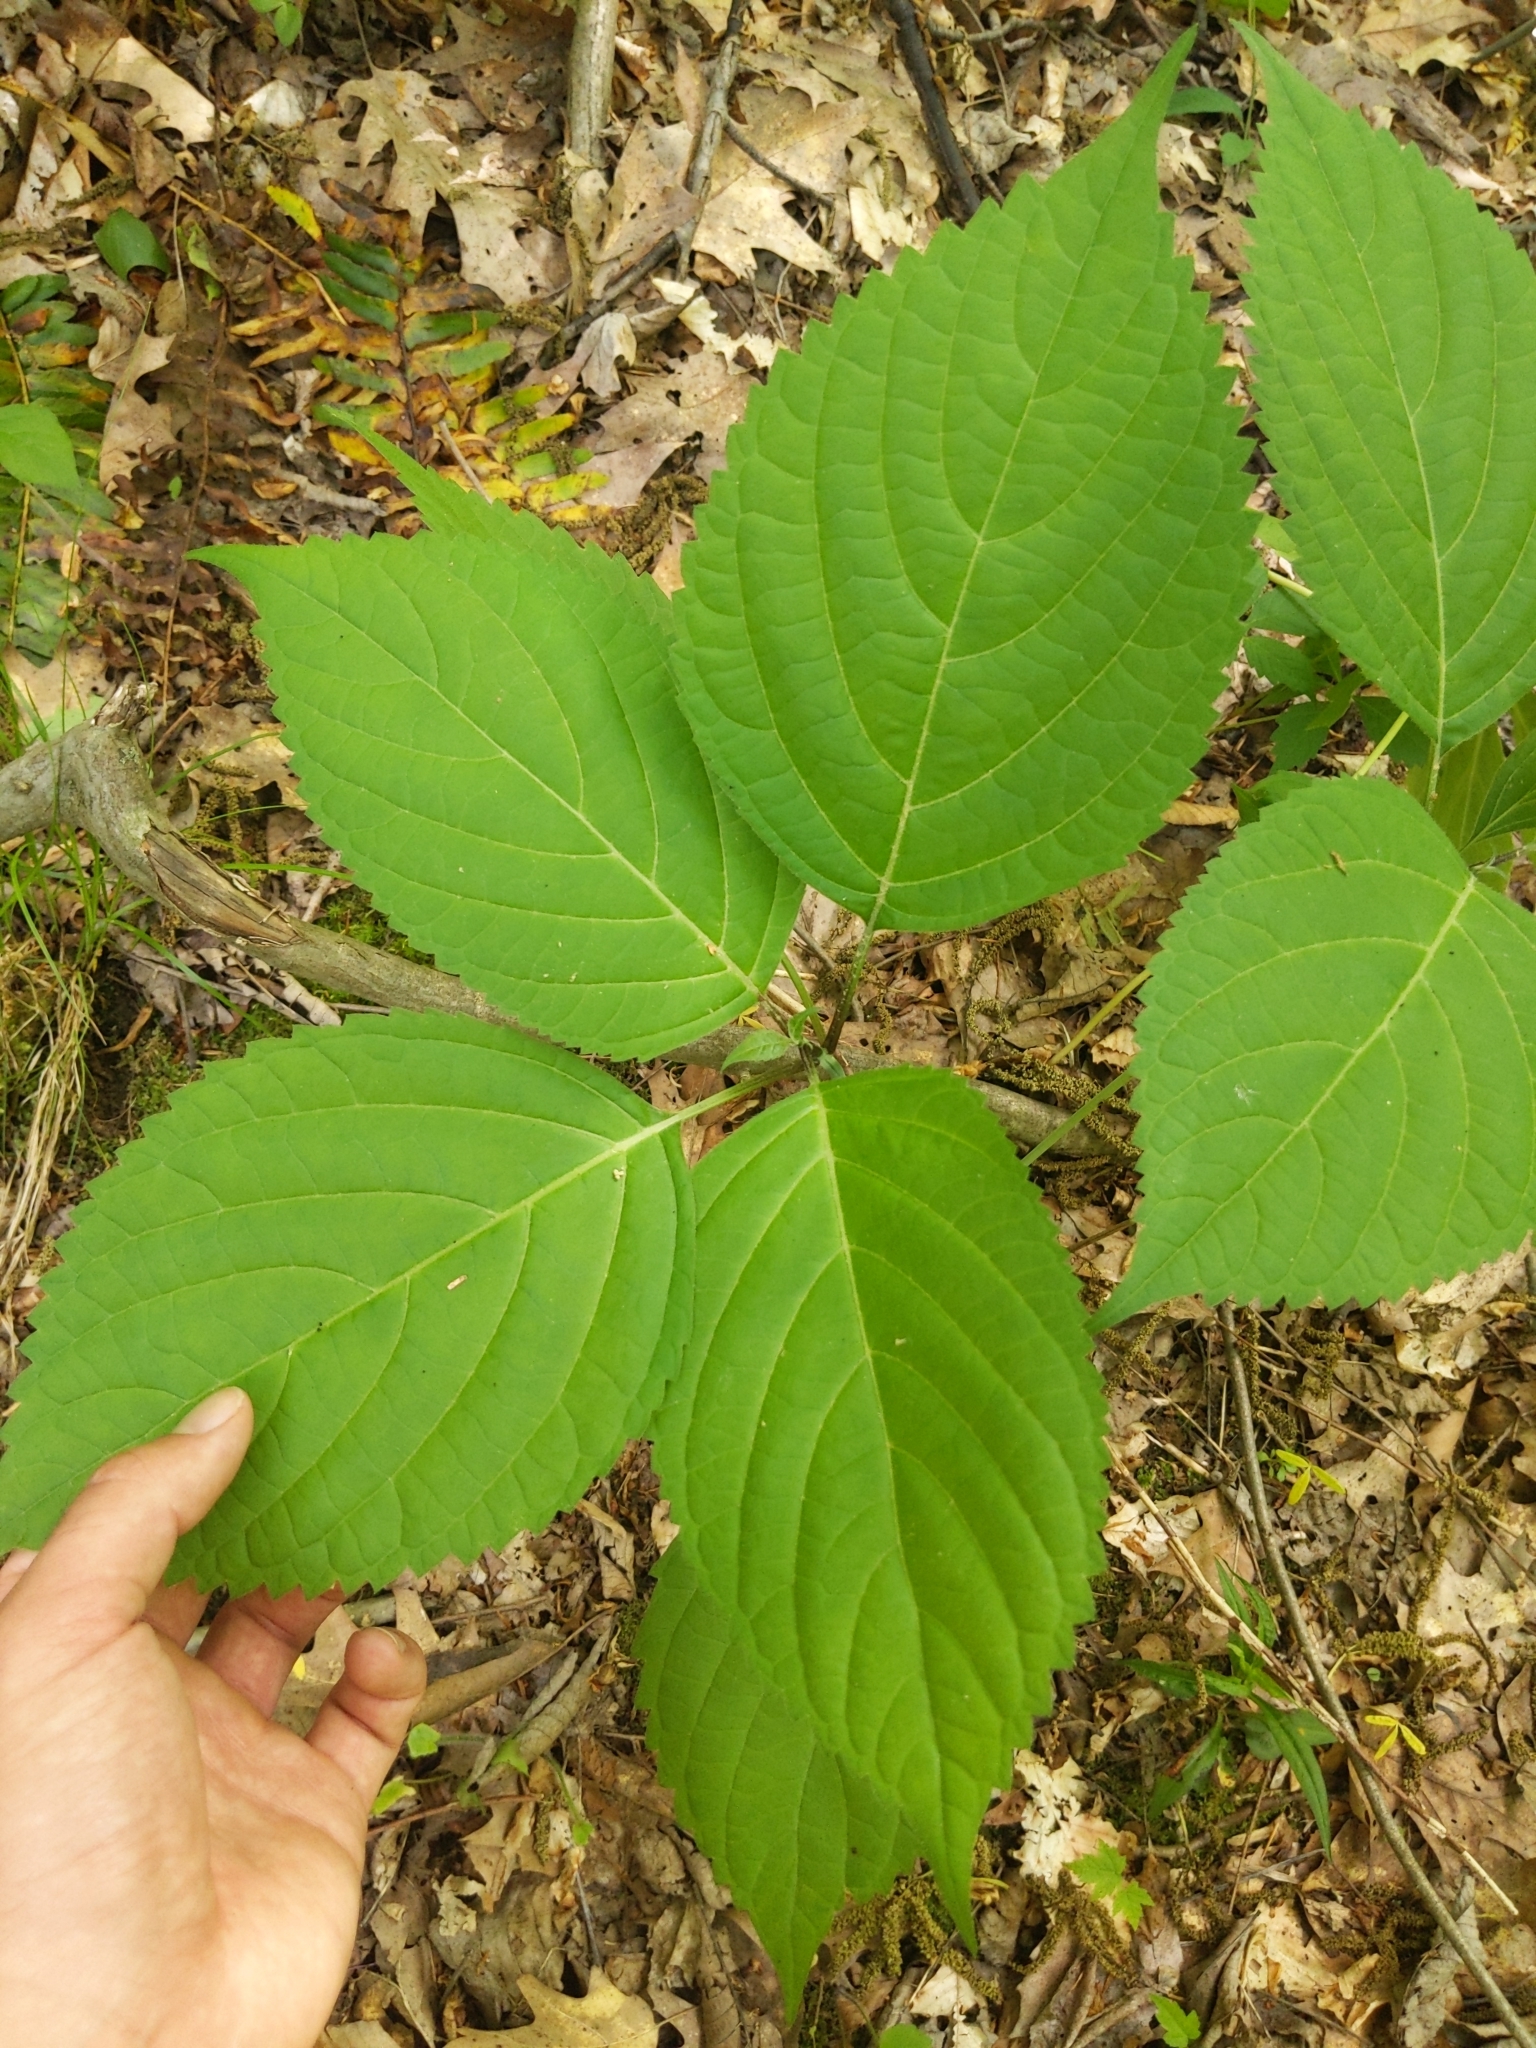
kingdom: Plantae
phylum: Tracheophyta
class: Magnoliopsida
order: Lamiales
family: Lamiaceae
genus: Collinsonia
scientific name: Collinsonia canadensis
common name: Northern horsebalm
